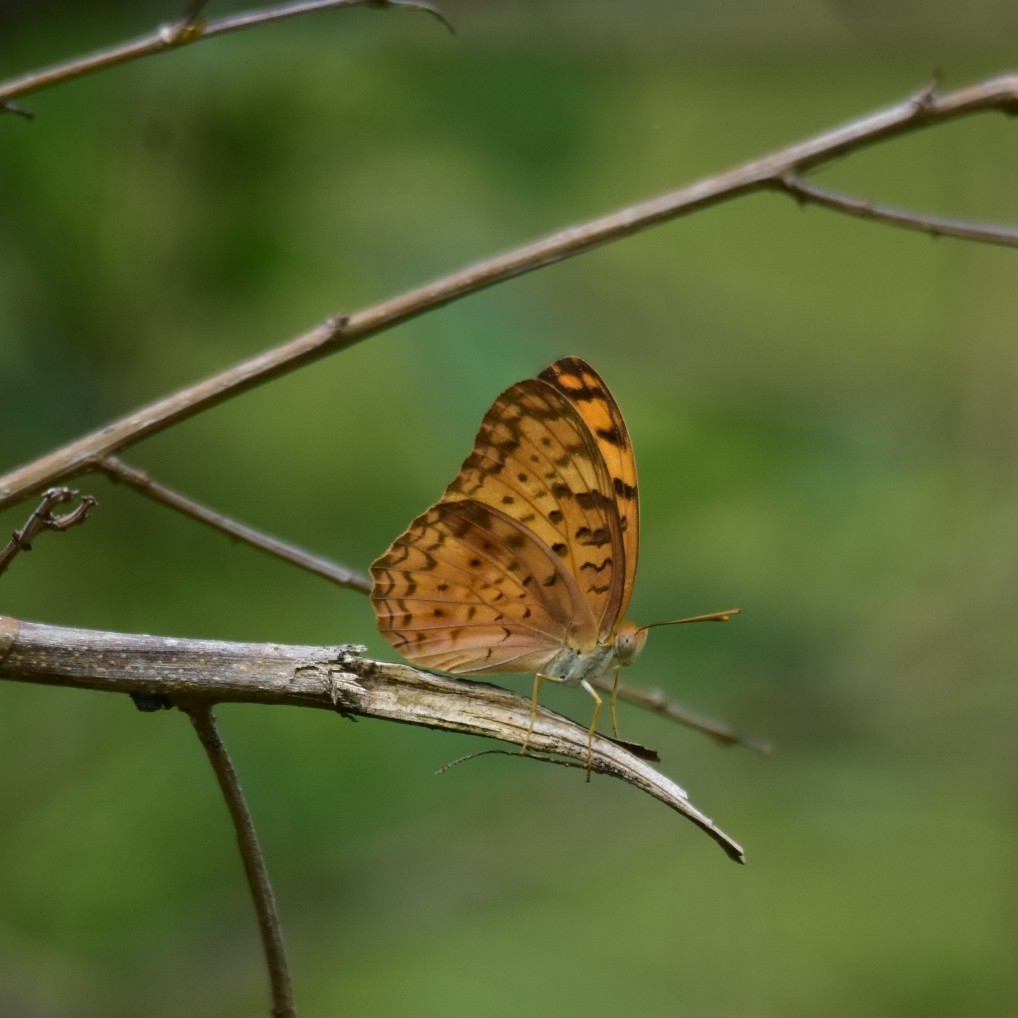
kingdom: Animalia
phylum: Arthropoda
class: Insecta
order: Lepidoptera
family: Nymphalidae
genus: Phalanta
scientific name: Phalanta phalantha
